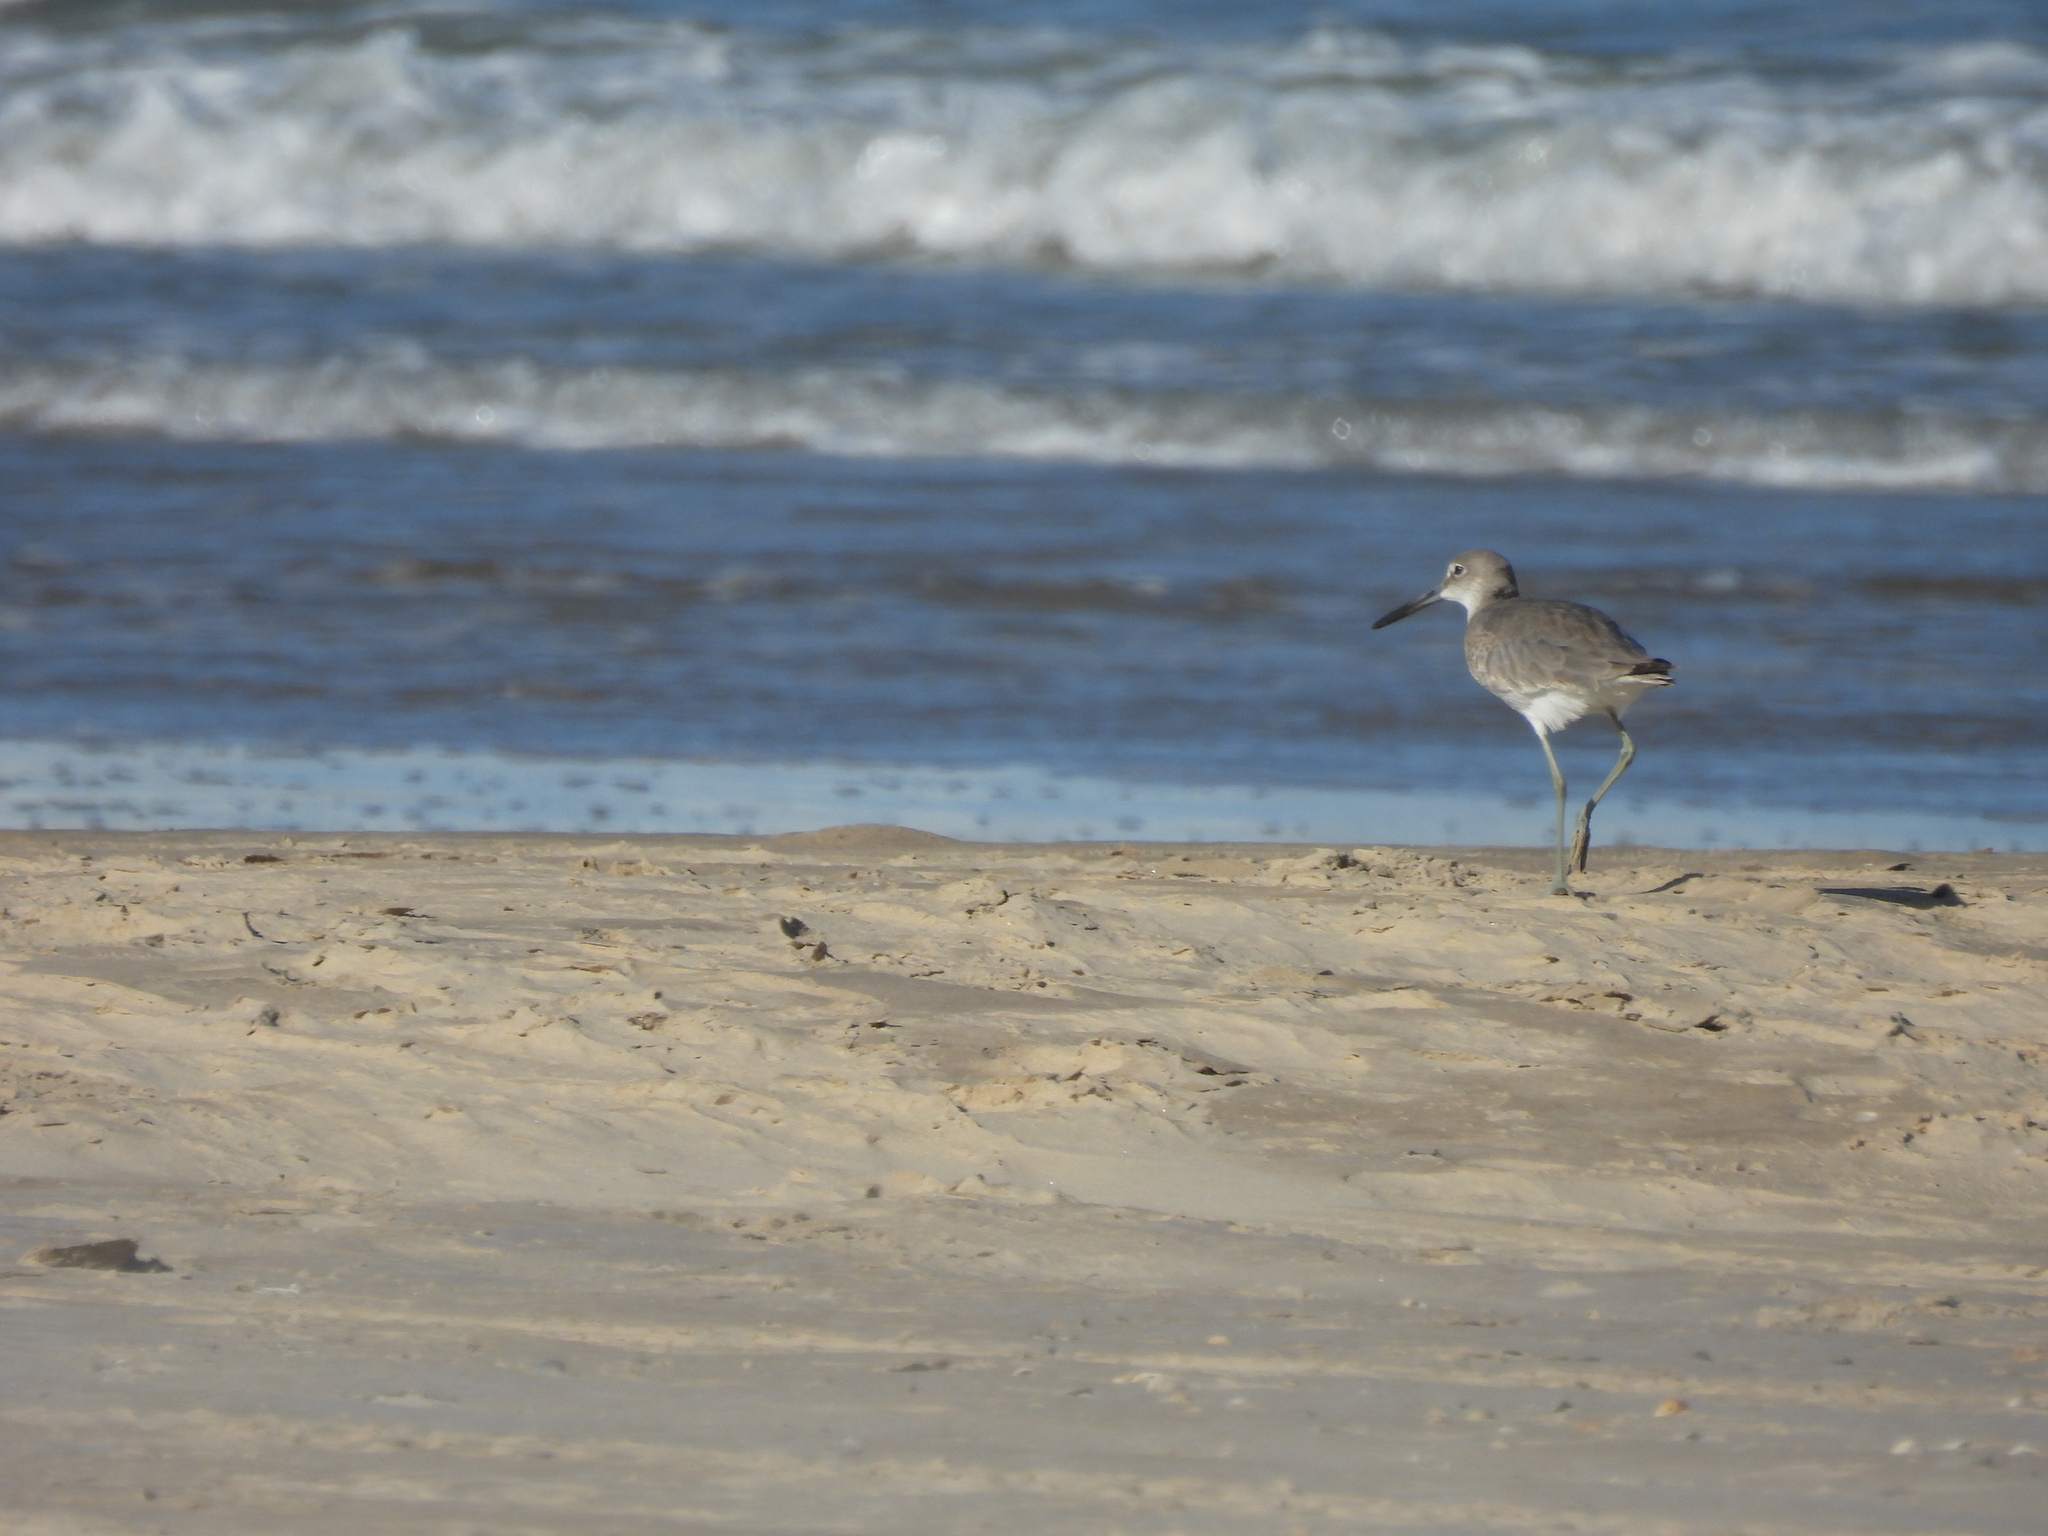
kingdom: Animalia
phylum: Chordata
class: Aves
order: Charadriiformes
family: Scolopacidae
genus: Tringa
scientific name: Tringa semipalmata
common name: Willet
